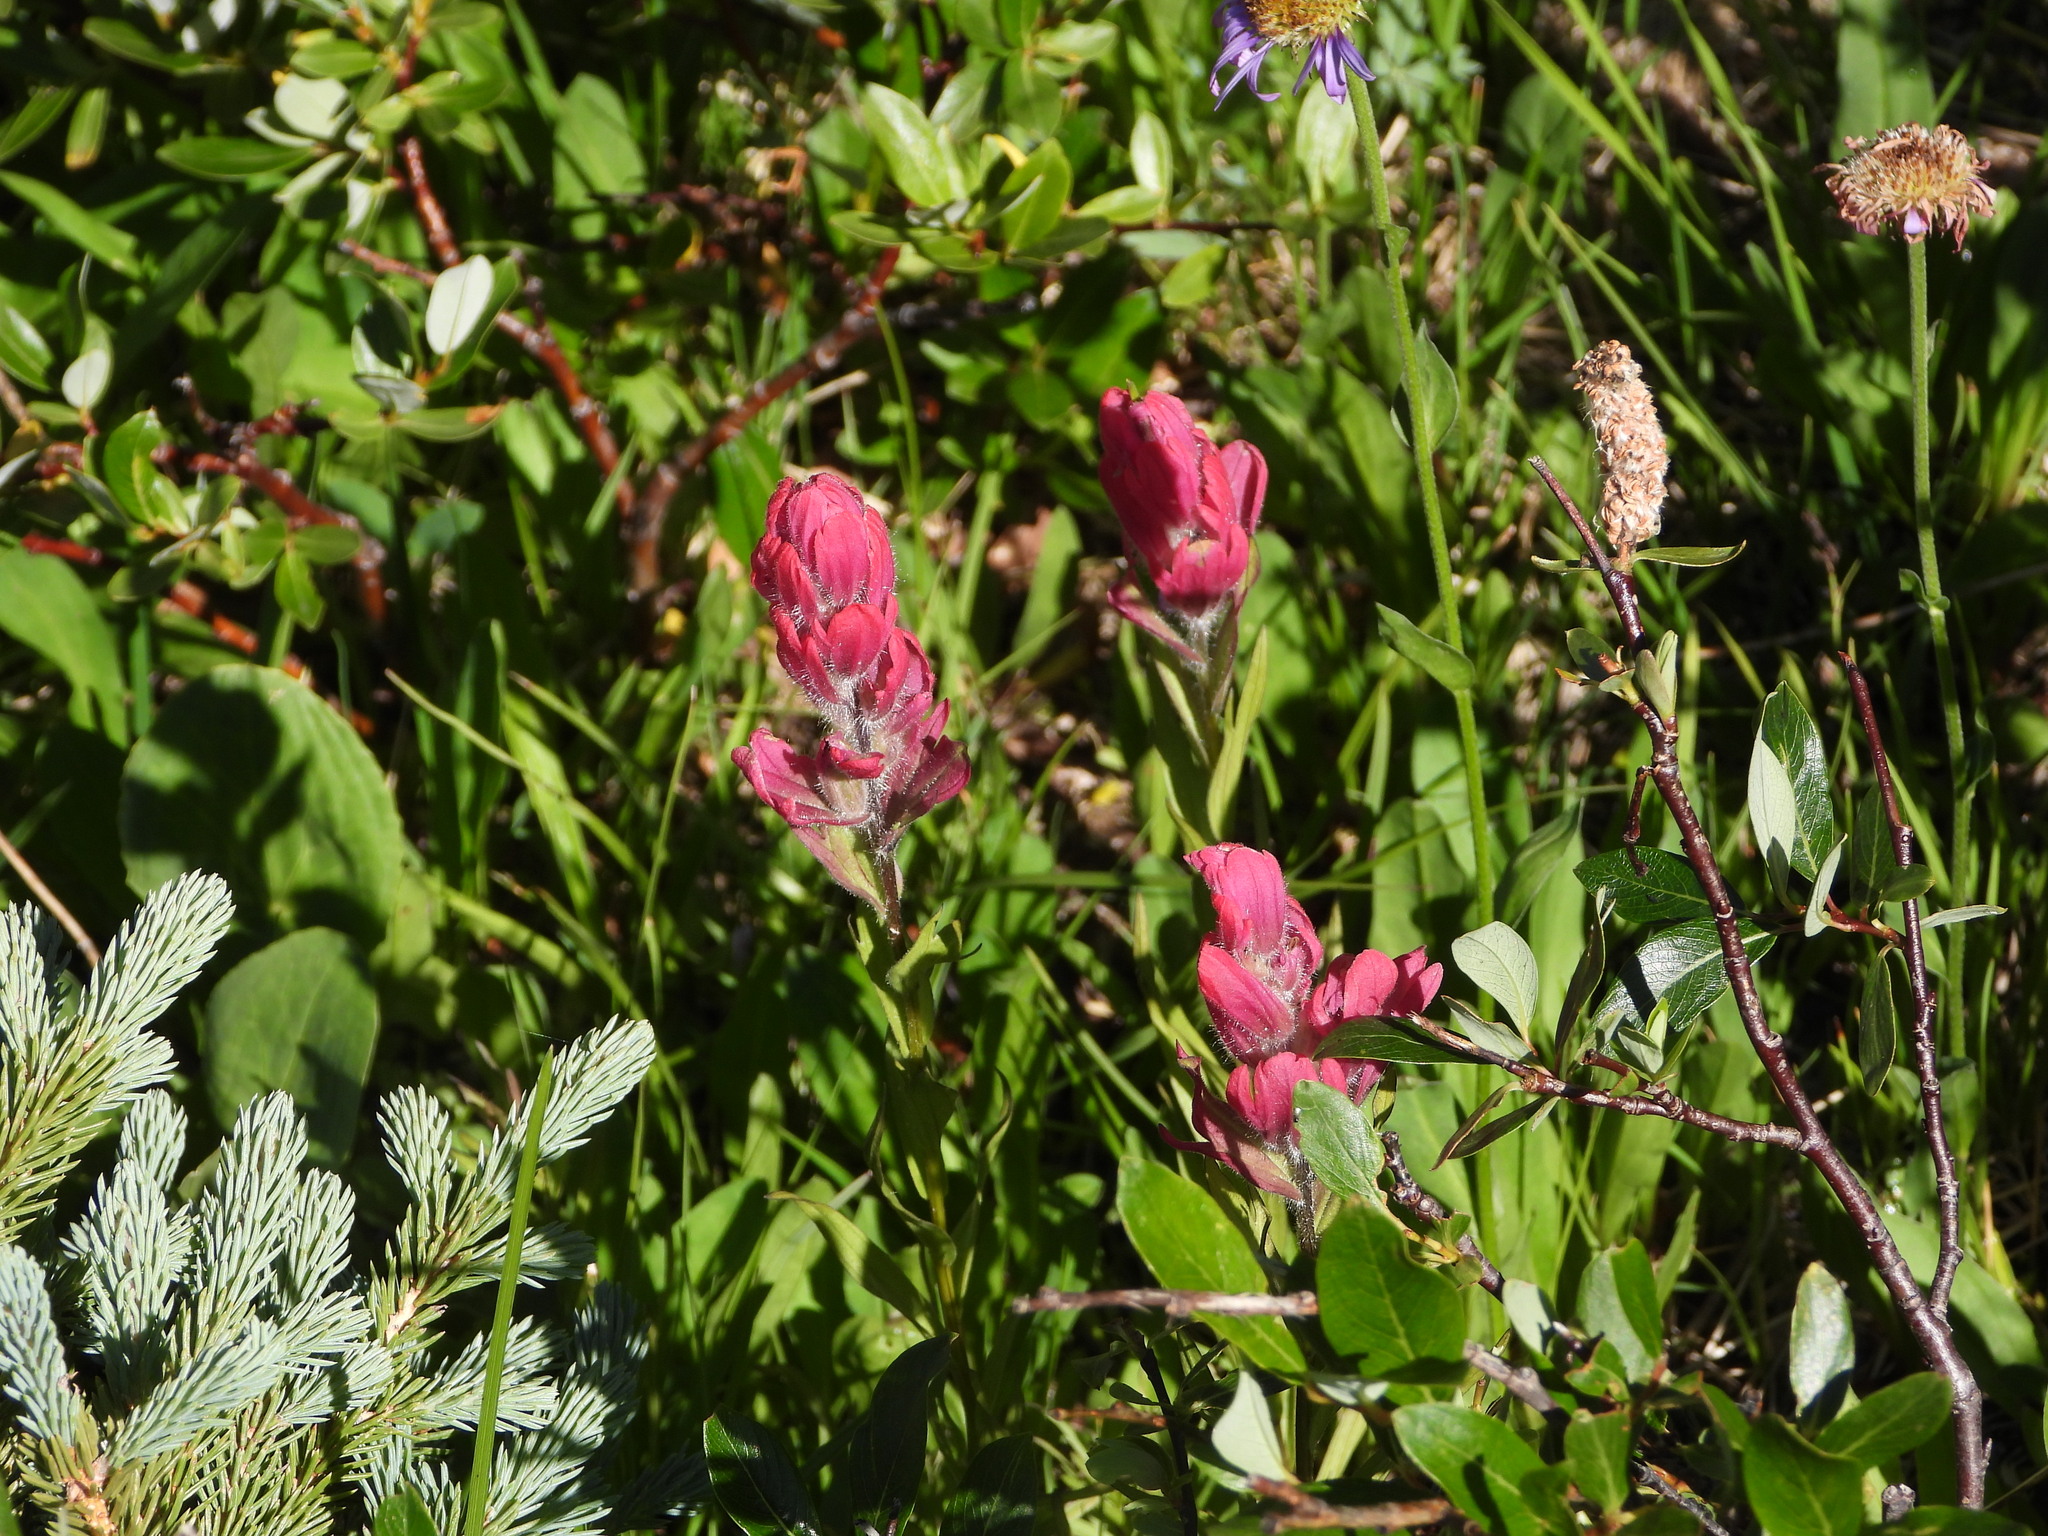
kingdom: Plantae
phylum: Tracheophyta
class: Magnoliopsida
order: Lamiales
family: Orobanchaceae
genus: Castilleja
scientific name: Castilleja rhexifolia
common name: Rocky mountain paintbrush
